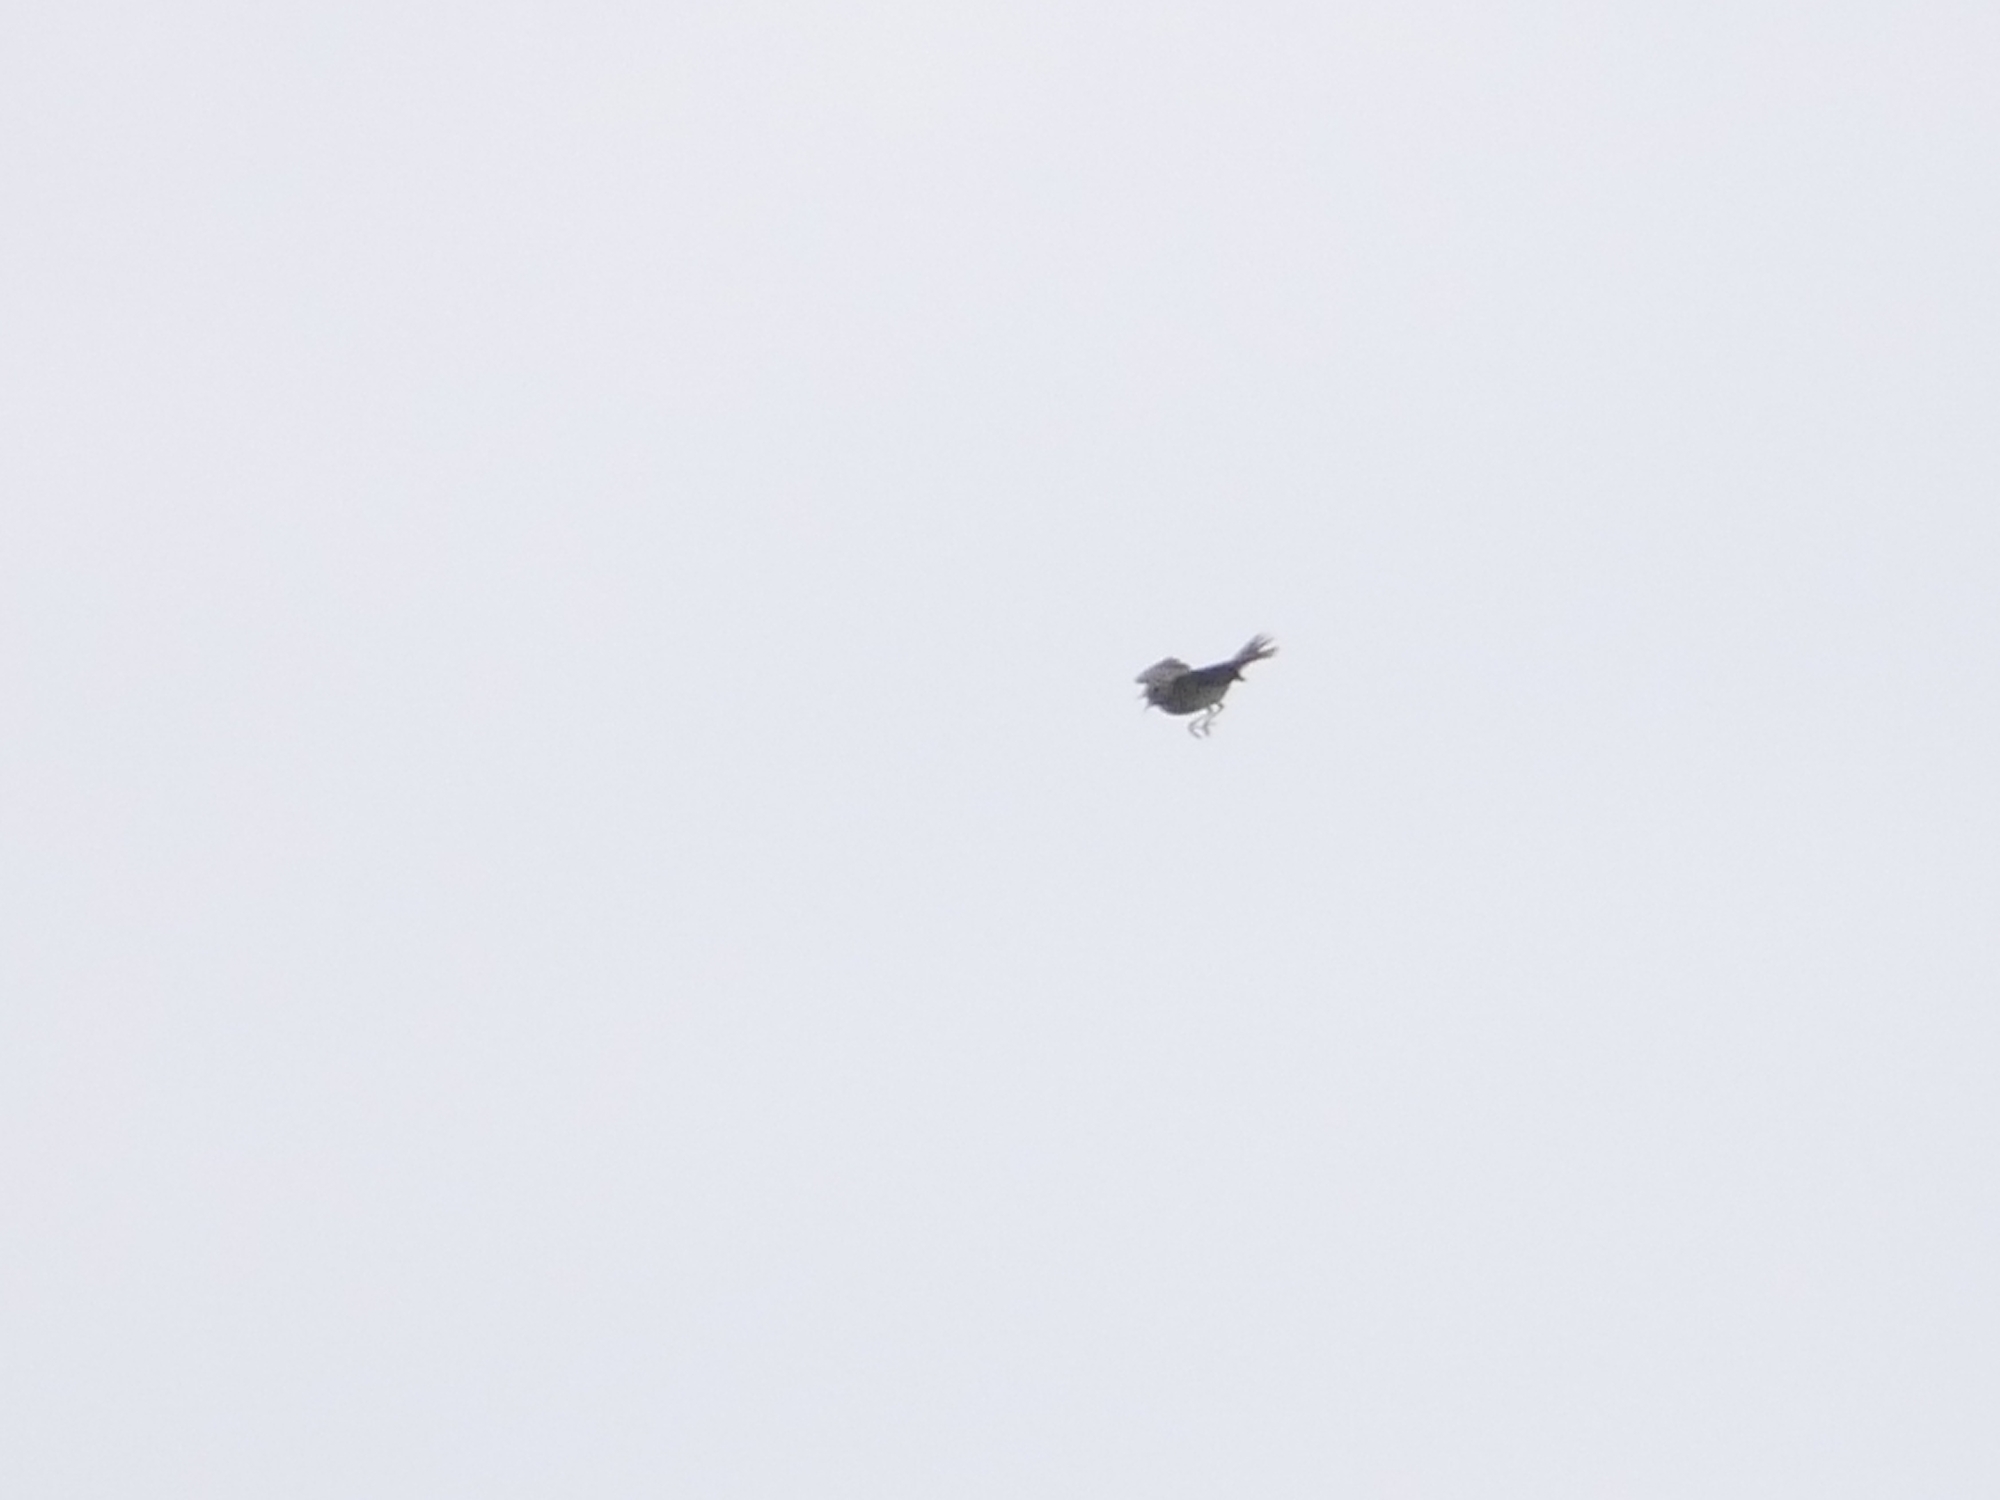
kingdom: Animalia
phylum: Chordata
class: Aves
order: Passeriformes
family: Motacillidae
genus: Anthus
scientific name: Anthus trivialis
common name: Tree pipit
